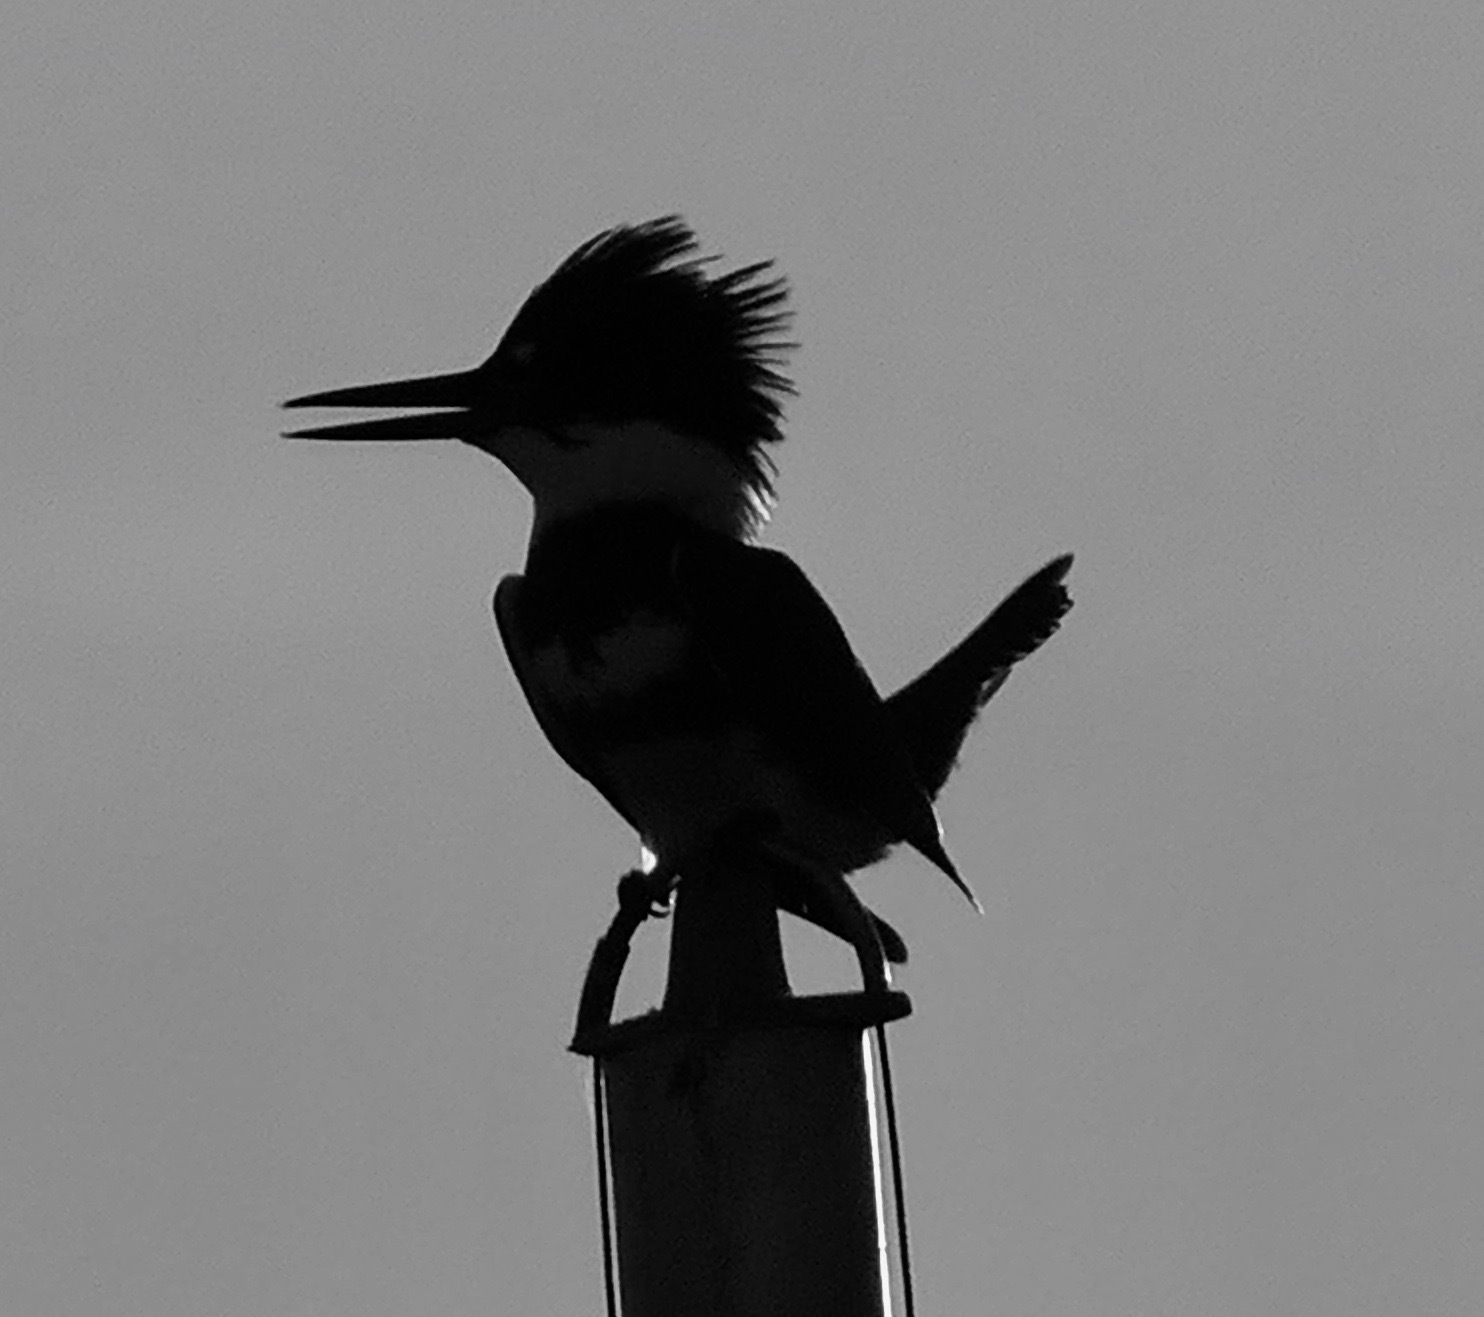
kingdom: Animalia
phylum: Chordata
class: Aves
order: Coraciiformes
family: Alcedinidae
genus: Megaceryle
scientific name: Megaceryle alcyon
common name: Belted kingfisher
